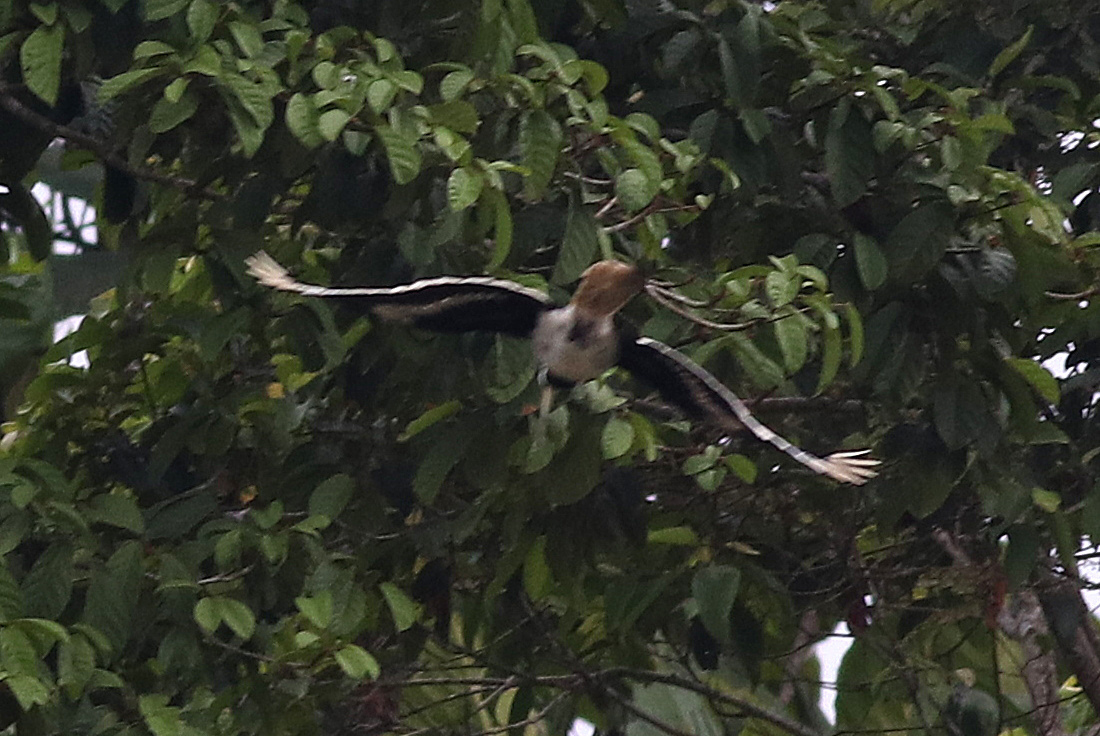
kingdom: Animalia
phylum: Chordata
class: Aves
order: Bucerotiformes
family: Bucerotidae
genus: Buceros
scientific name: Buceros bicornis
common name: Great hornbill
